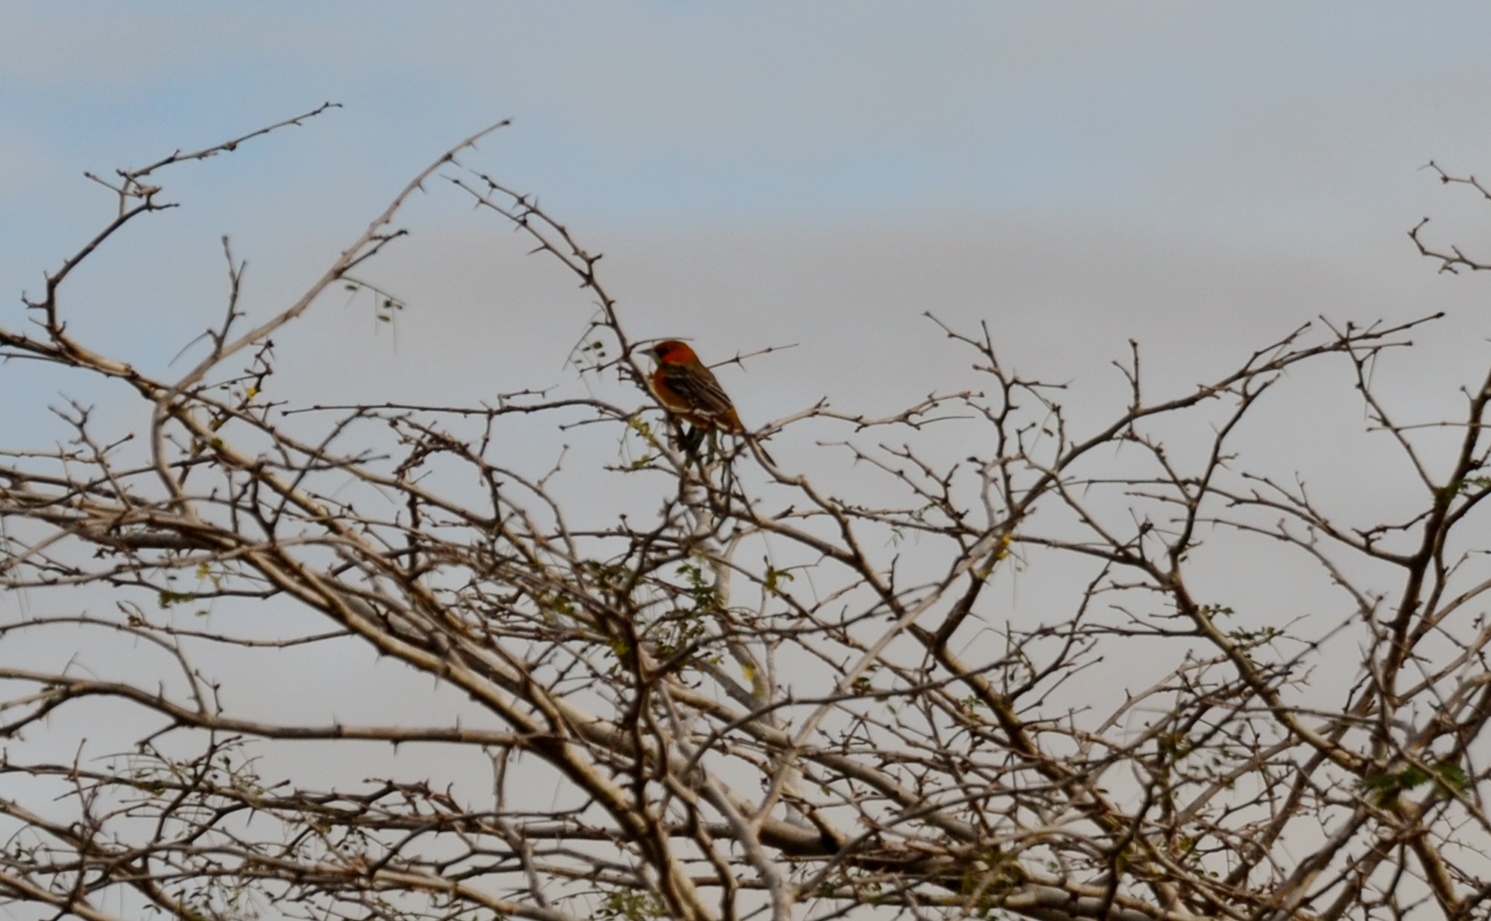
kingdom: Animalia
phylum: Chordata
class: Aves
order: Passeriformes
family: Icteridae
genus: Icterus
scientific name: Icterus pustulatus
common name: Streak-backed oriole
